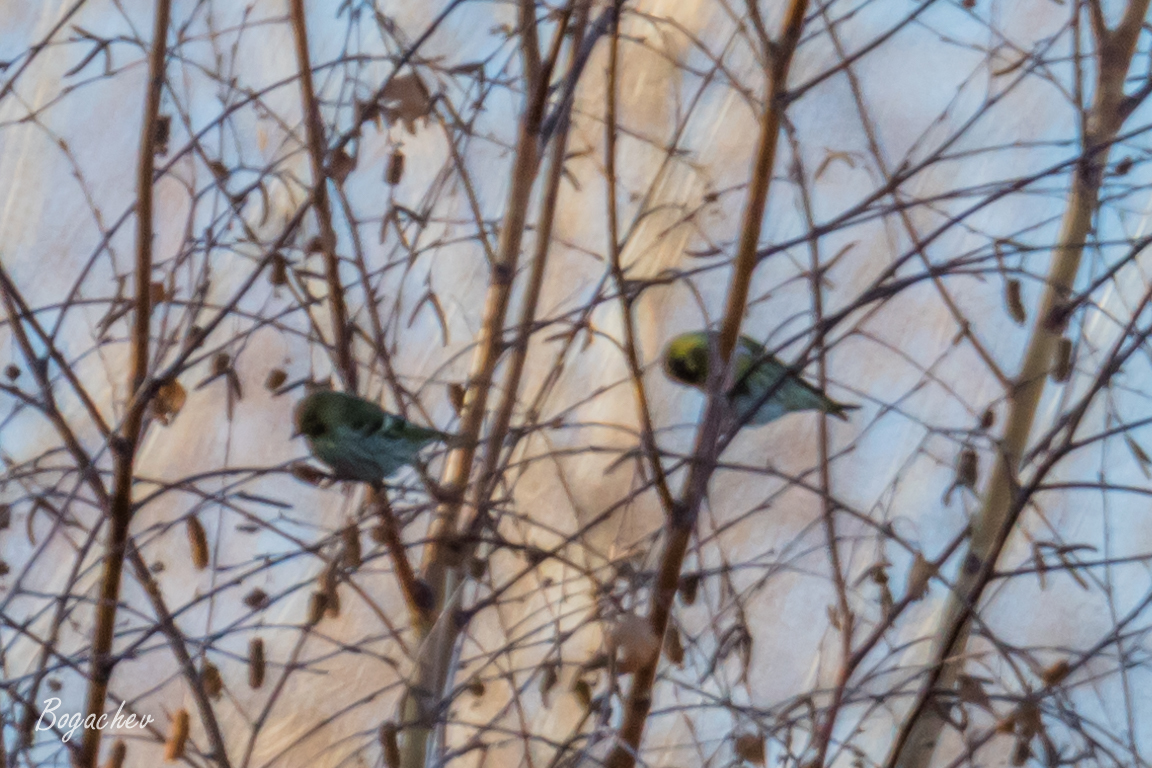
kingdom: Animalia
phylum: Chordata
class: Aves
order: Passeriformes
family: Fringillidae
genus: Spinus
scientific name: Spinus spinus
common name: Eurasian siskin
